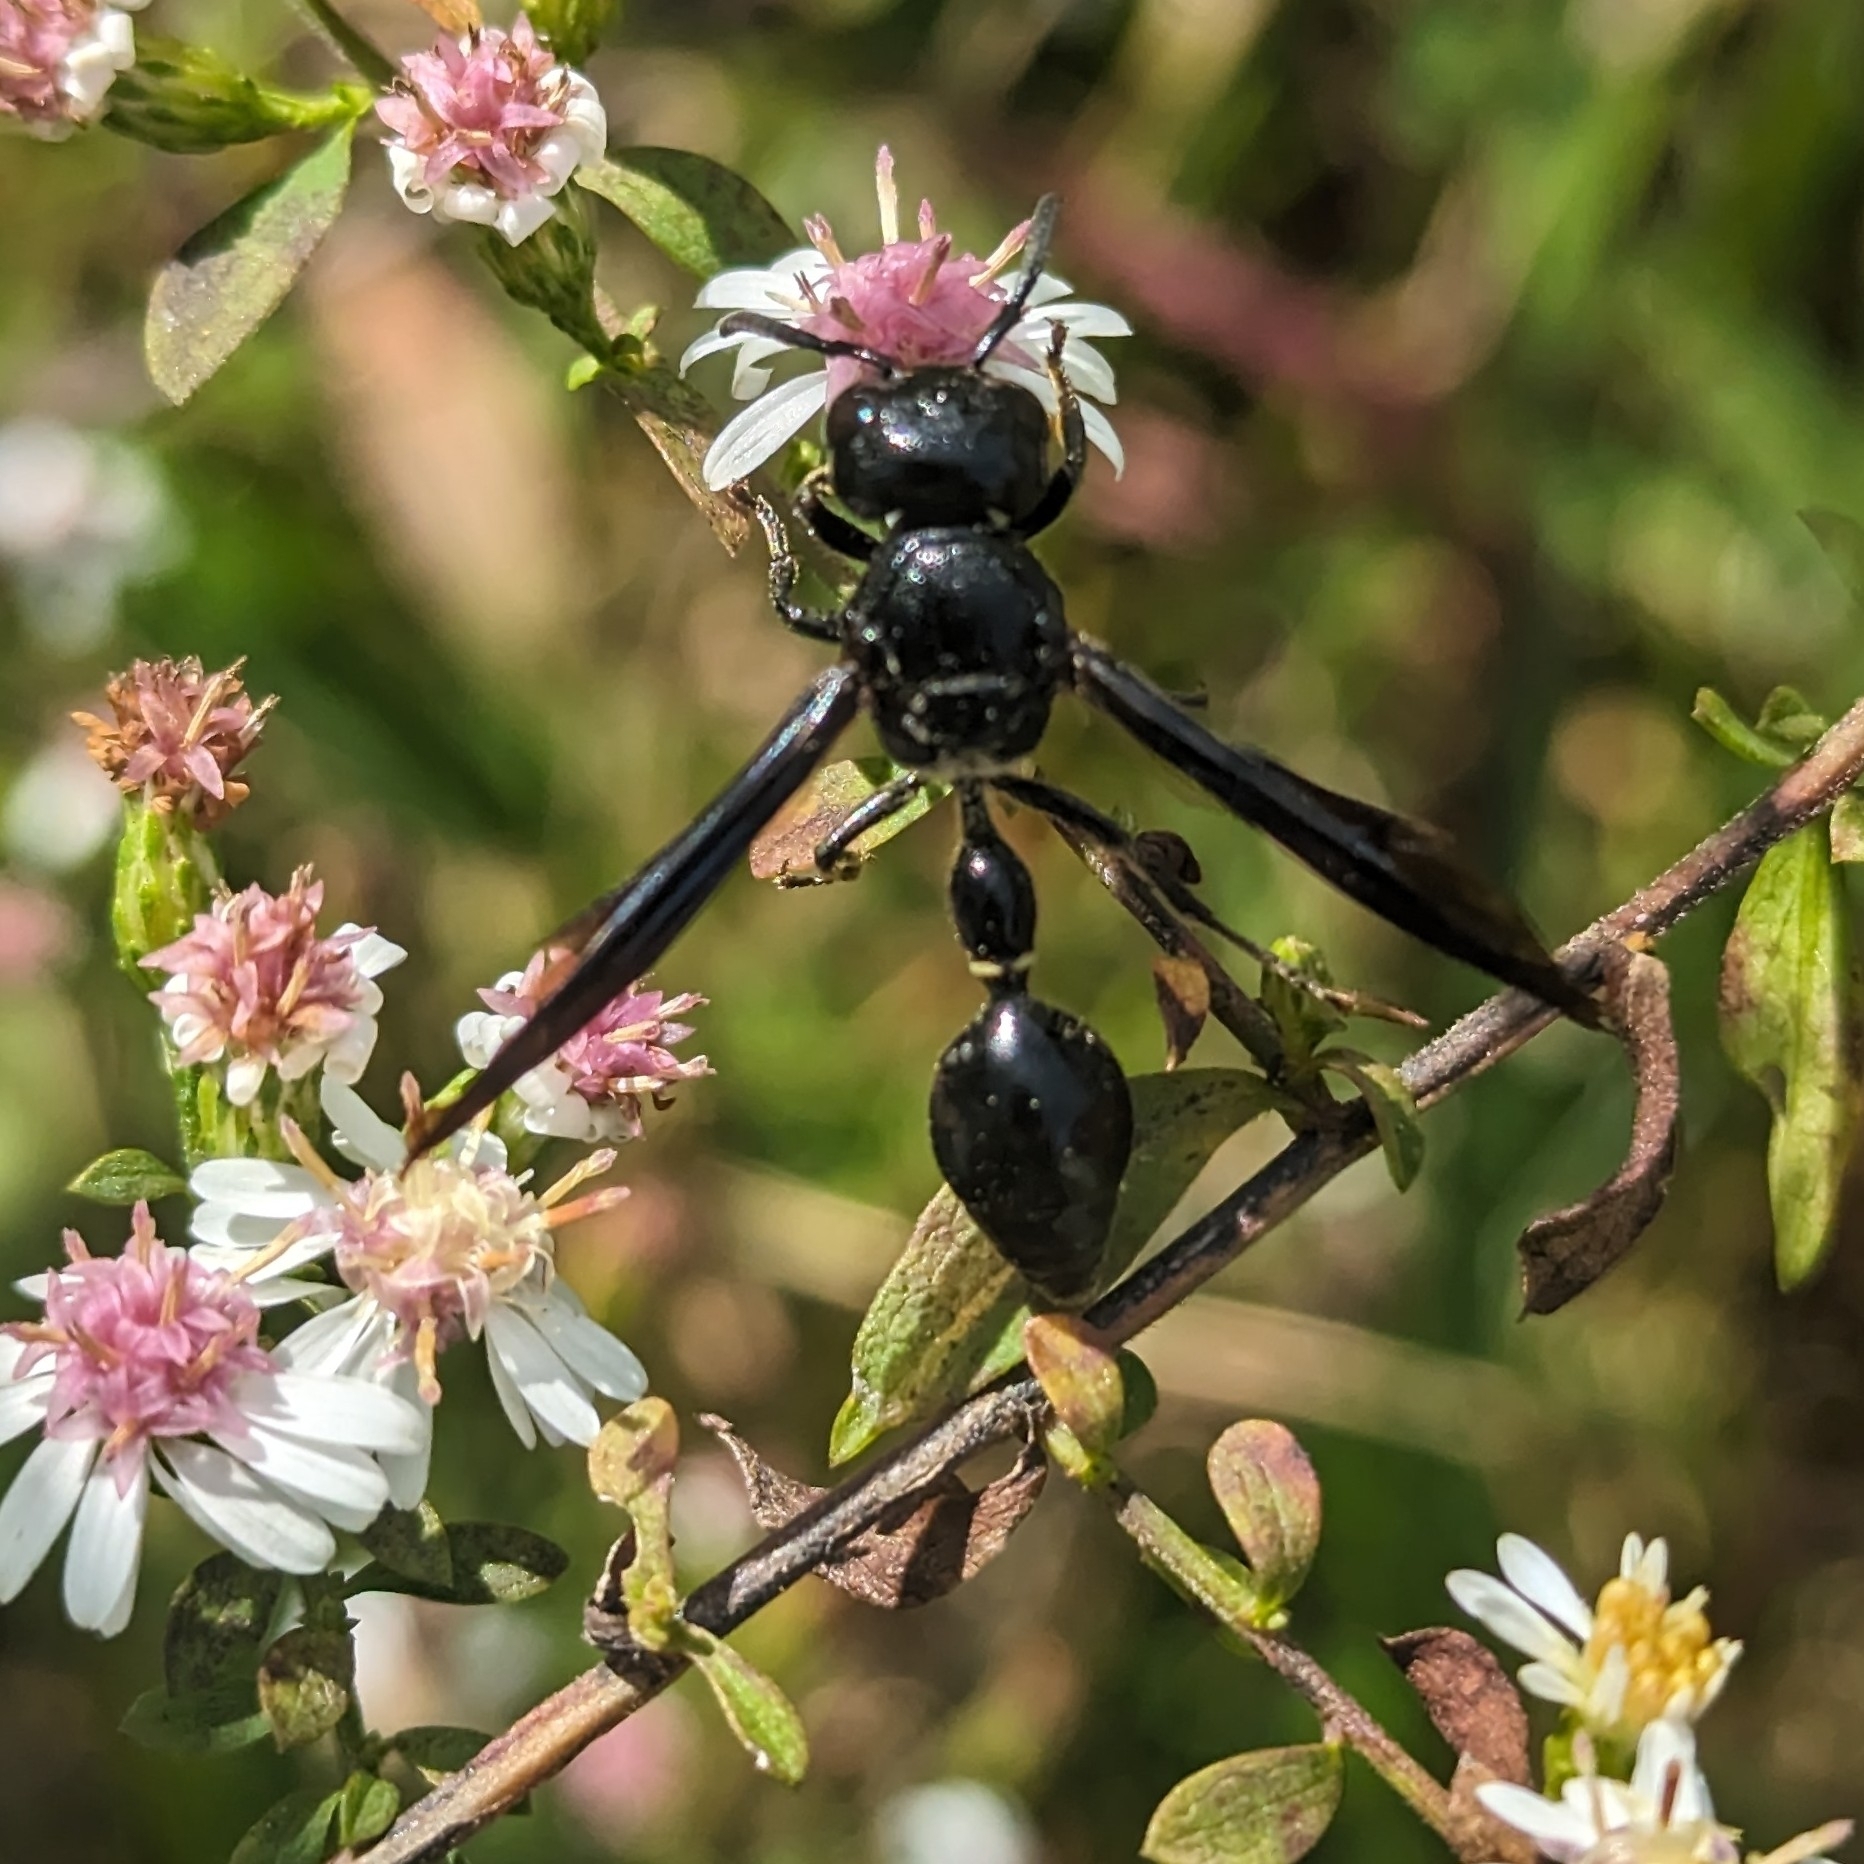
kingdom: Animalia
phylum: Arthropoda
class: Insecta
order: Hymenoptera
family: Eumenidae
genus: Zethus
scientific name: Zethus spinipes
